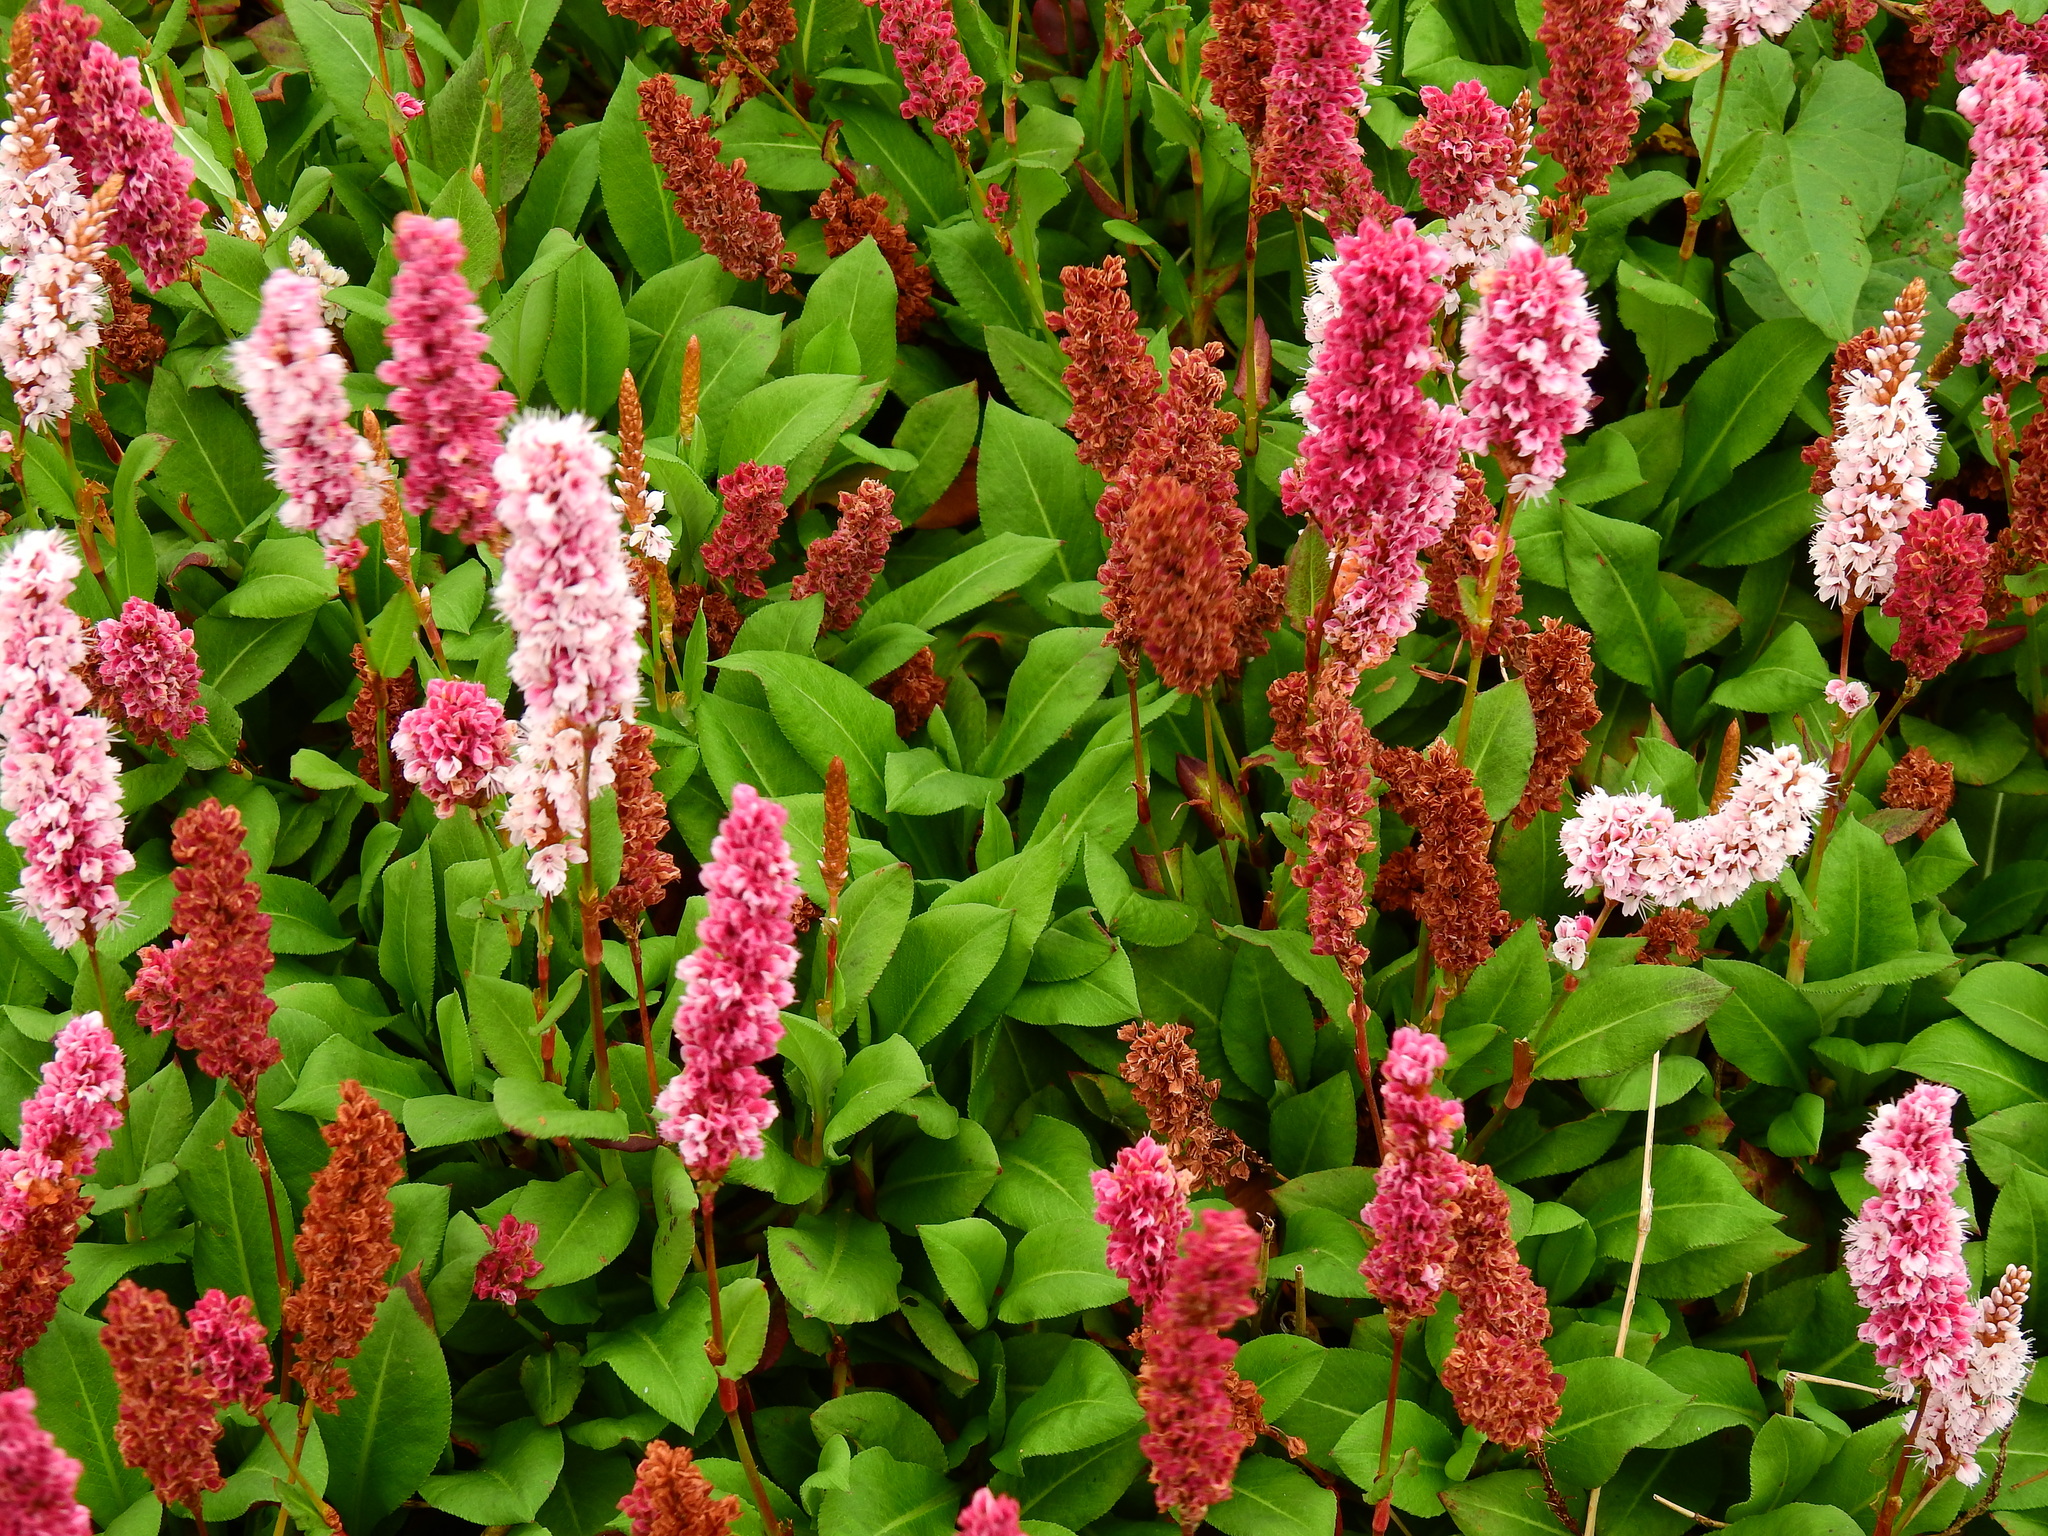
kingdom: Plantae
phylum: Tracheophyta
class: Magnoliopsida
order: Caryophyllales
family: Polygonaceae
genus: Bistorta
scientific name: Bistorta affinis
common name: Himalayan fleeceflower
